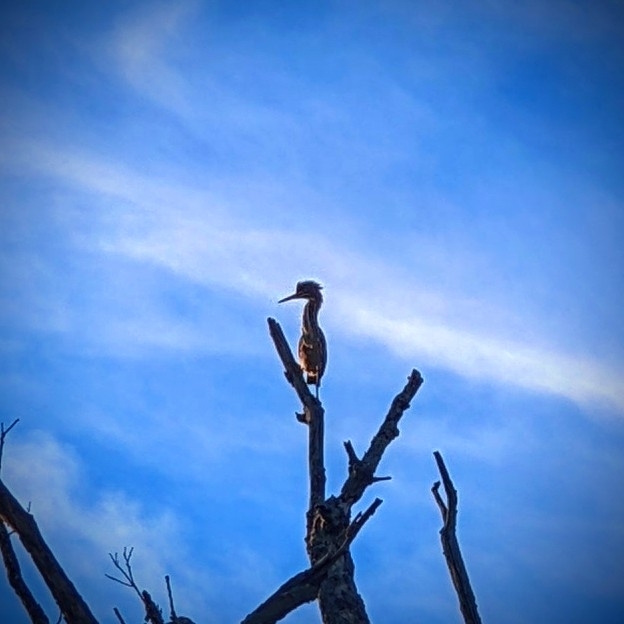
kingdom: Animalia
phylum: Chordata
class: Aves
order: Pelecaniformes
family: Ardeidae
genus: Butorides
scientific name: Butorides virescens
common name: Green heron
